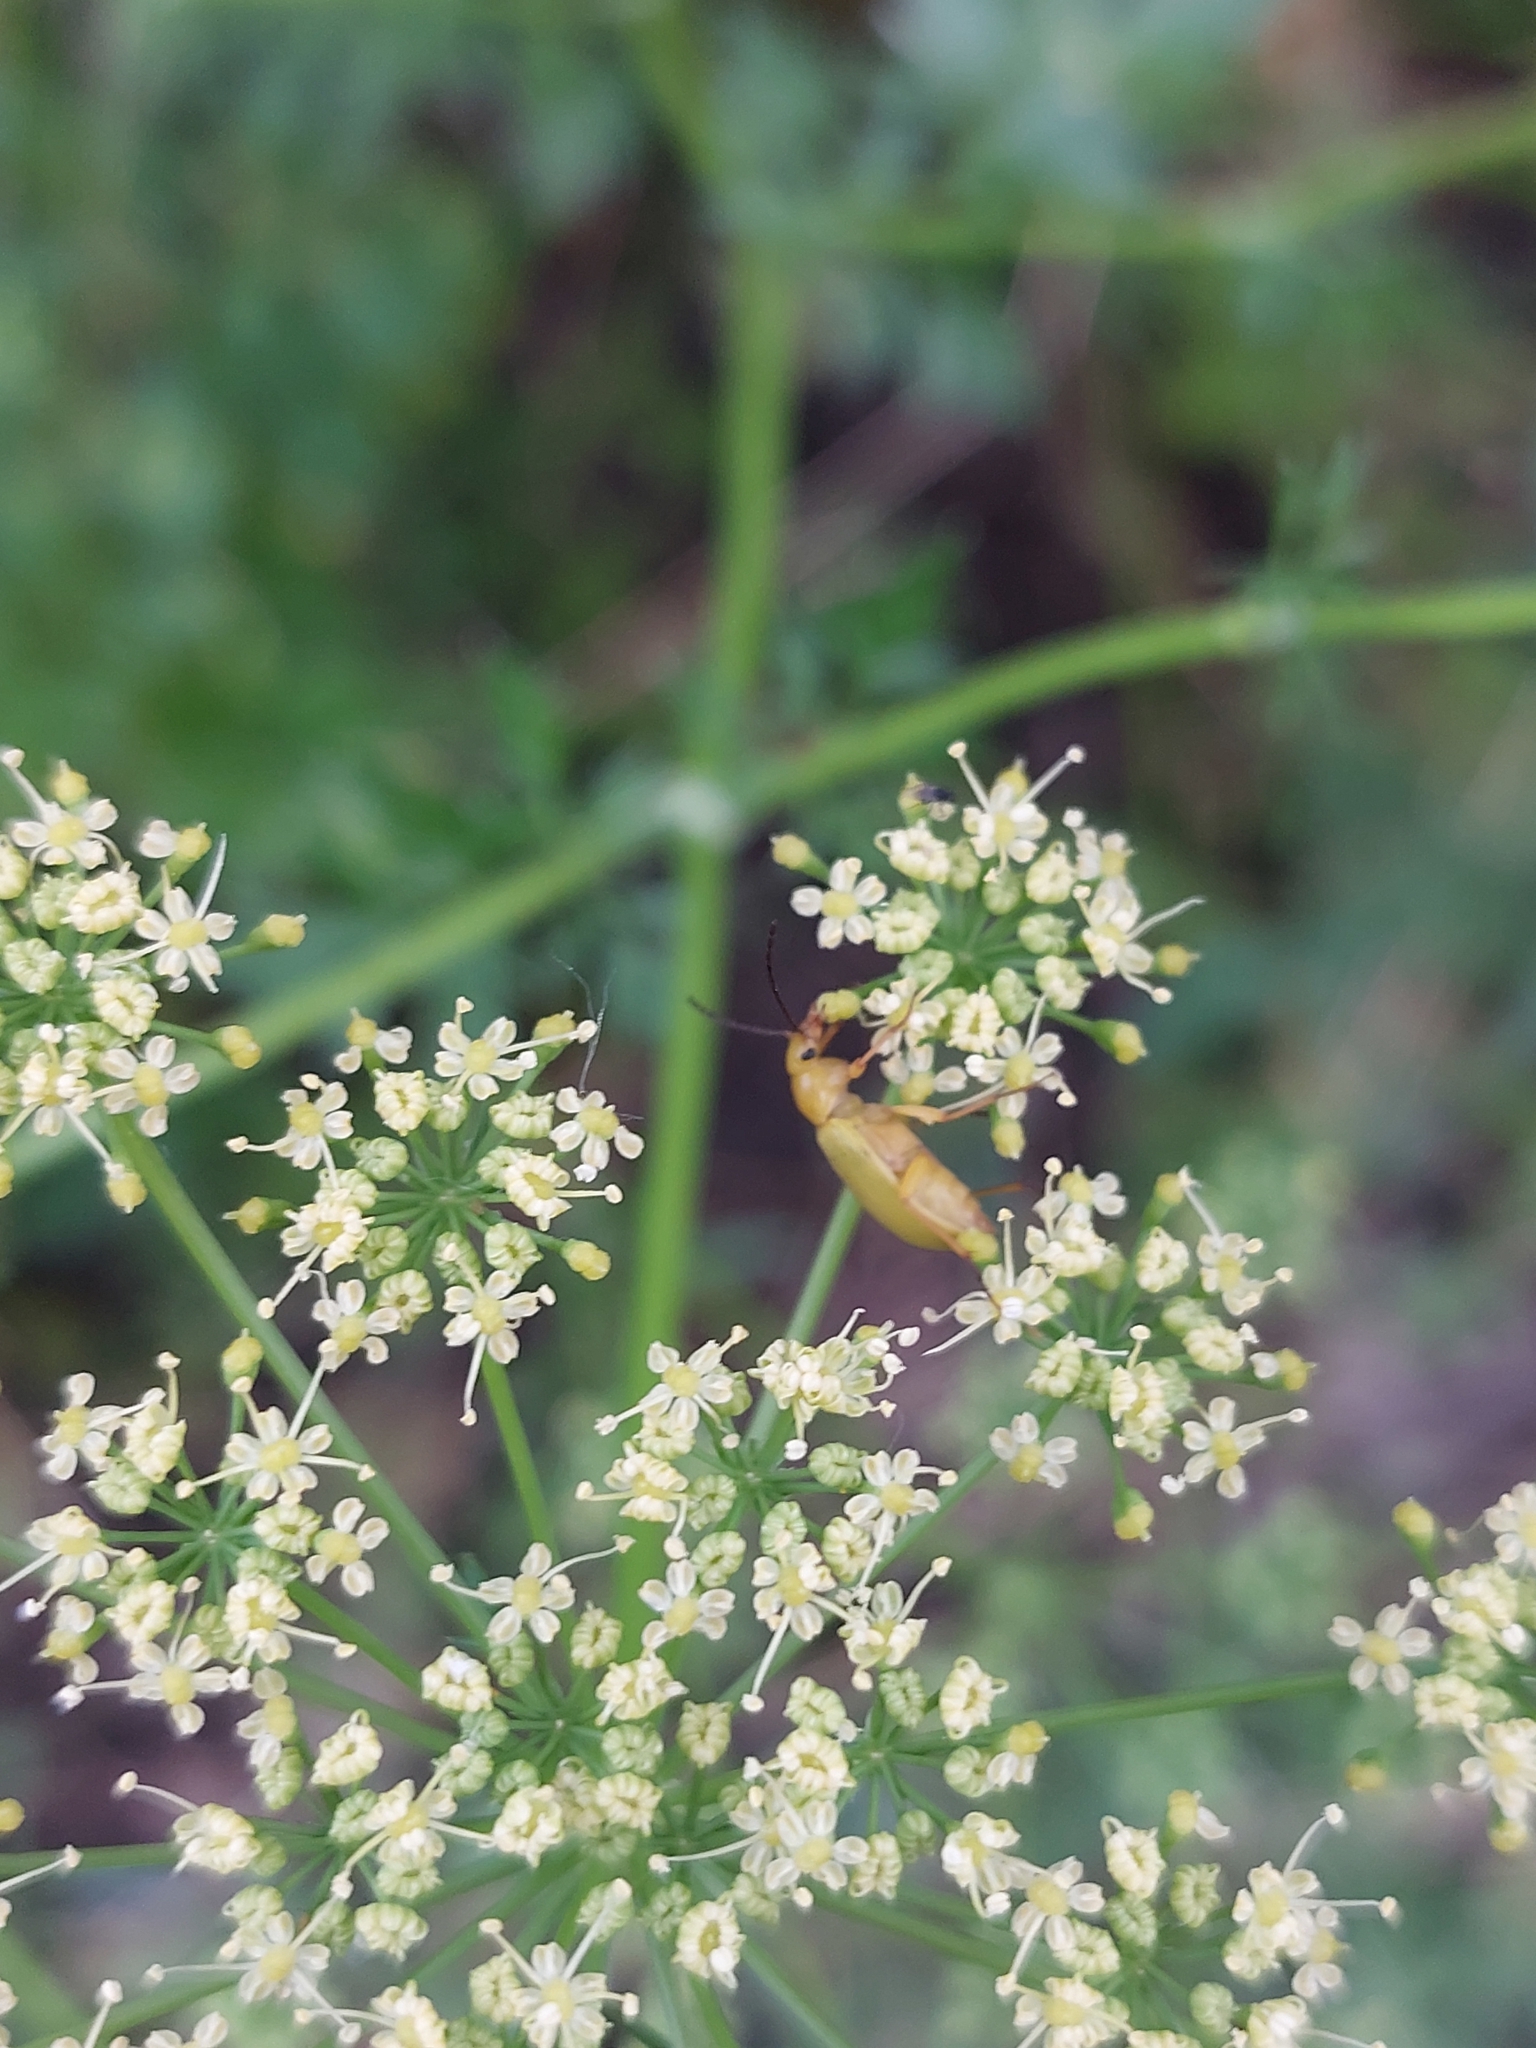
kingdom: Animalia
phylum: Arthropoda
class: Insecta
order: Coleoptera
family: Tenebrionidae
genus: Cteniopus
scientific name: Cteniopus sulphureus
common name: Sulphur beetle
